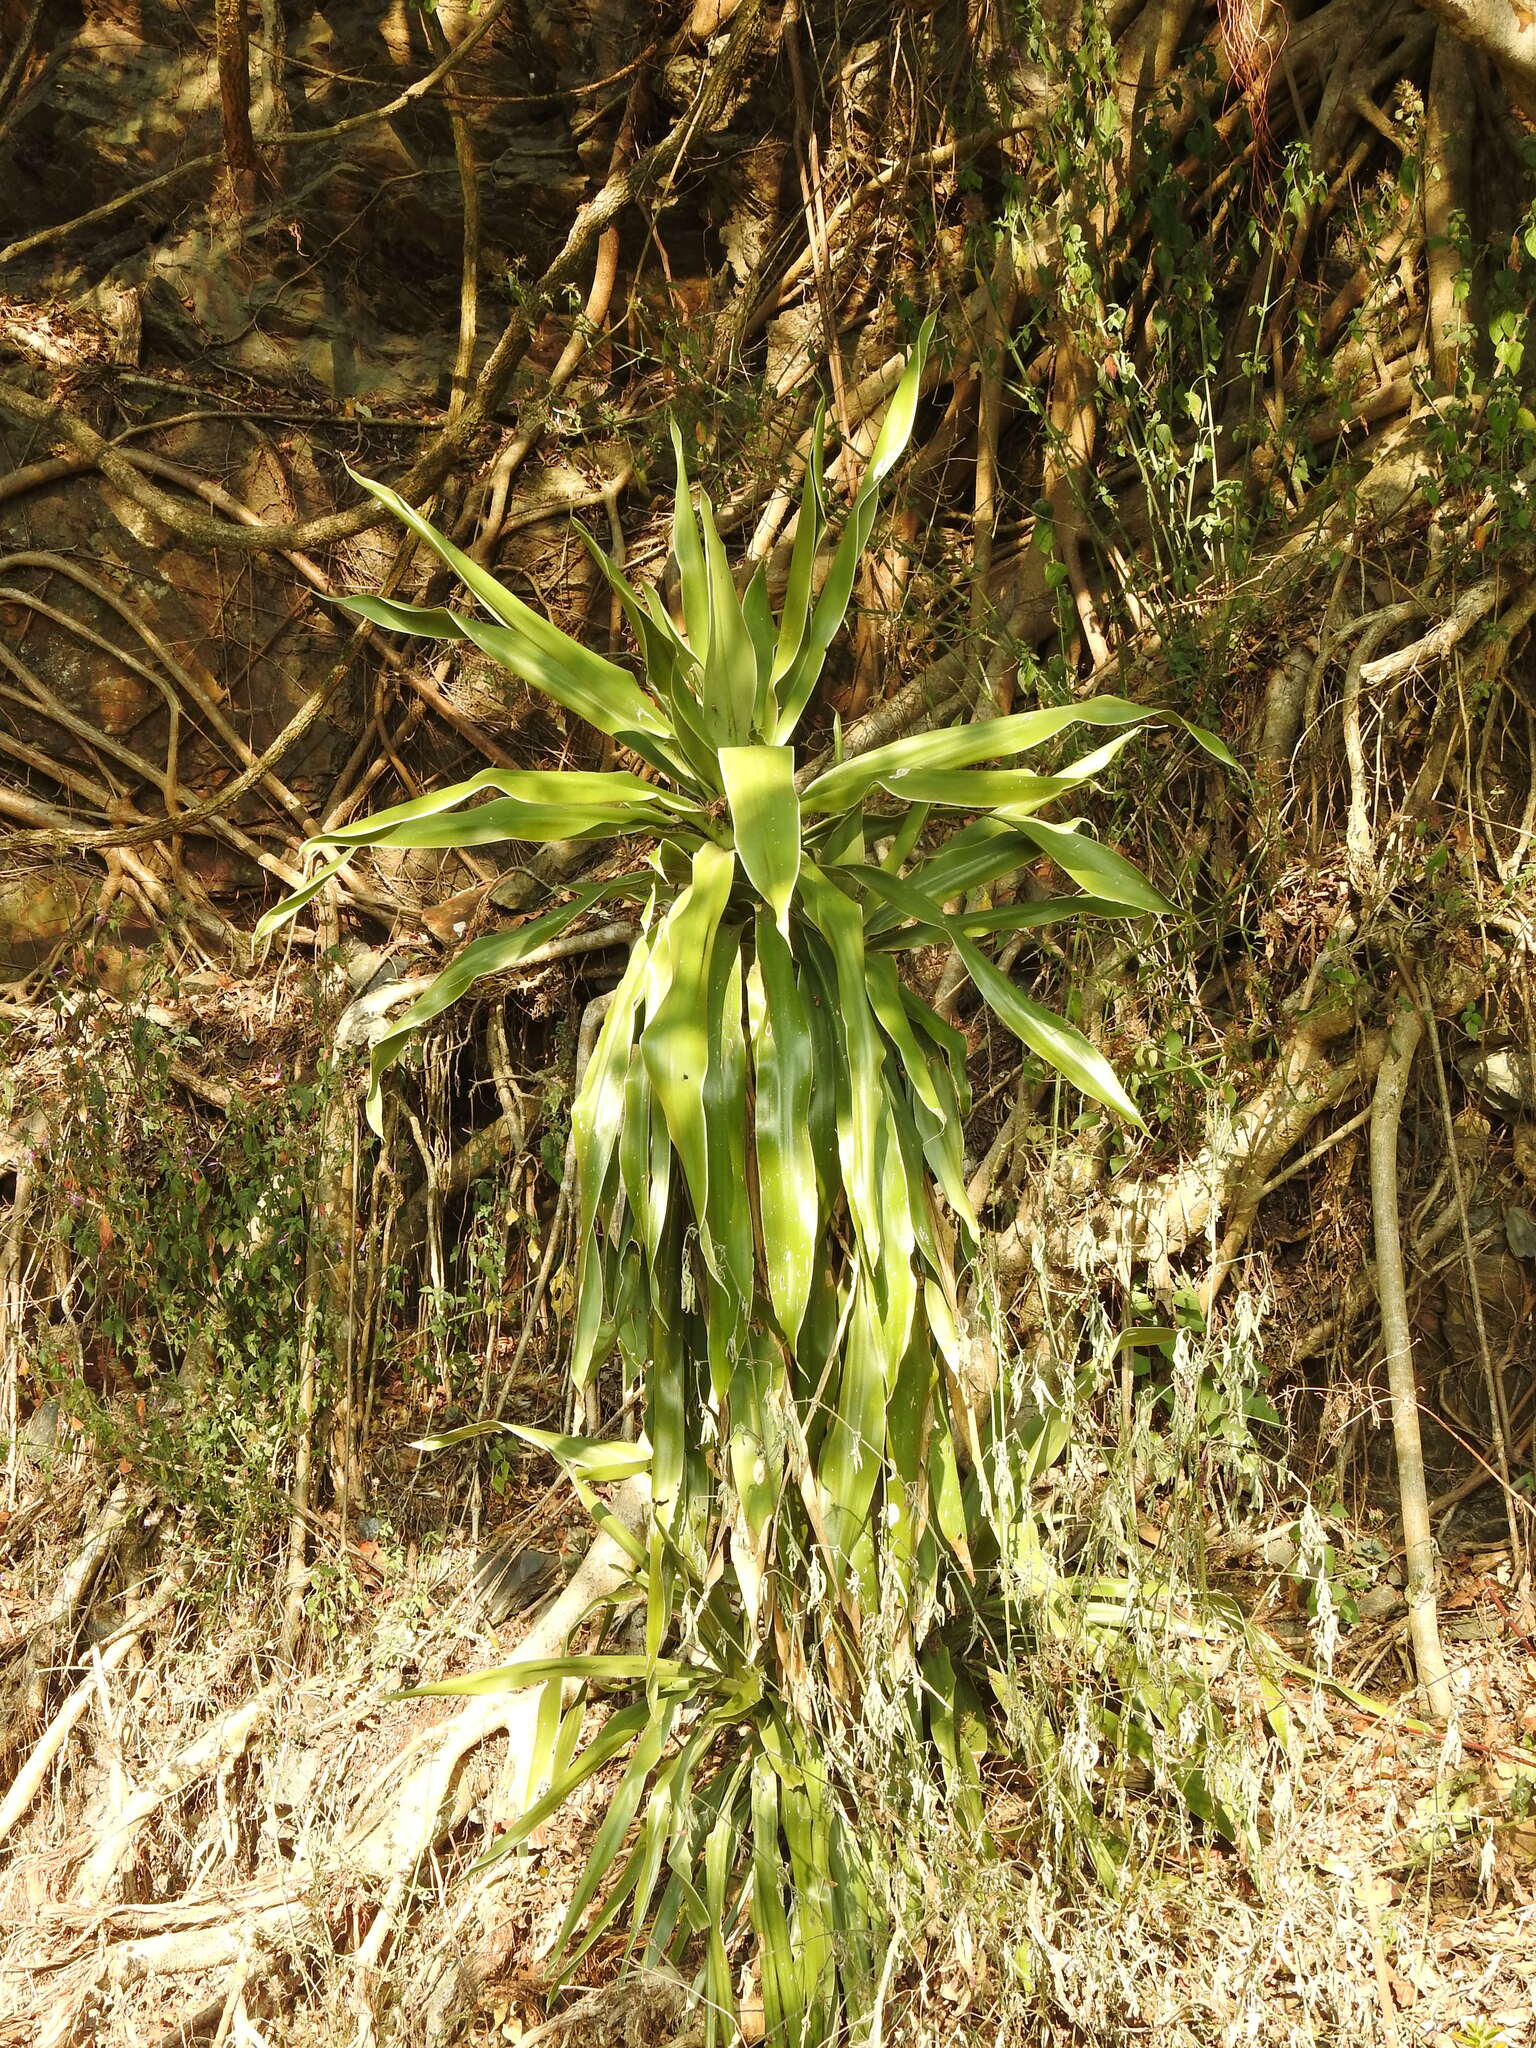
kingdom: Plantae
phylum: Tracheophyta
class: Liliopsida
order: Asparagales
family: Asparagaceae
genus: Dracaena
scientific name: Dracaena aletriformis
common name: Large-leaved dragon tree
